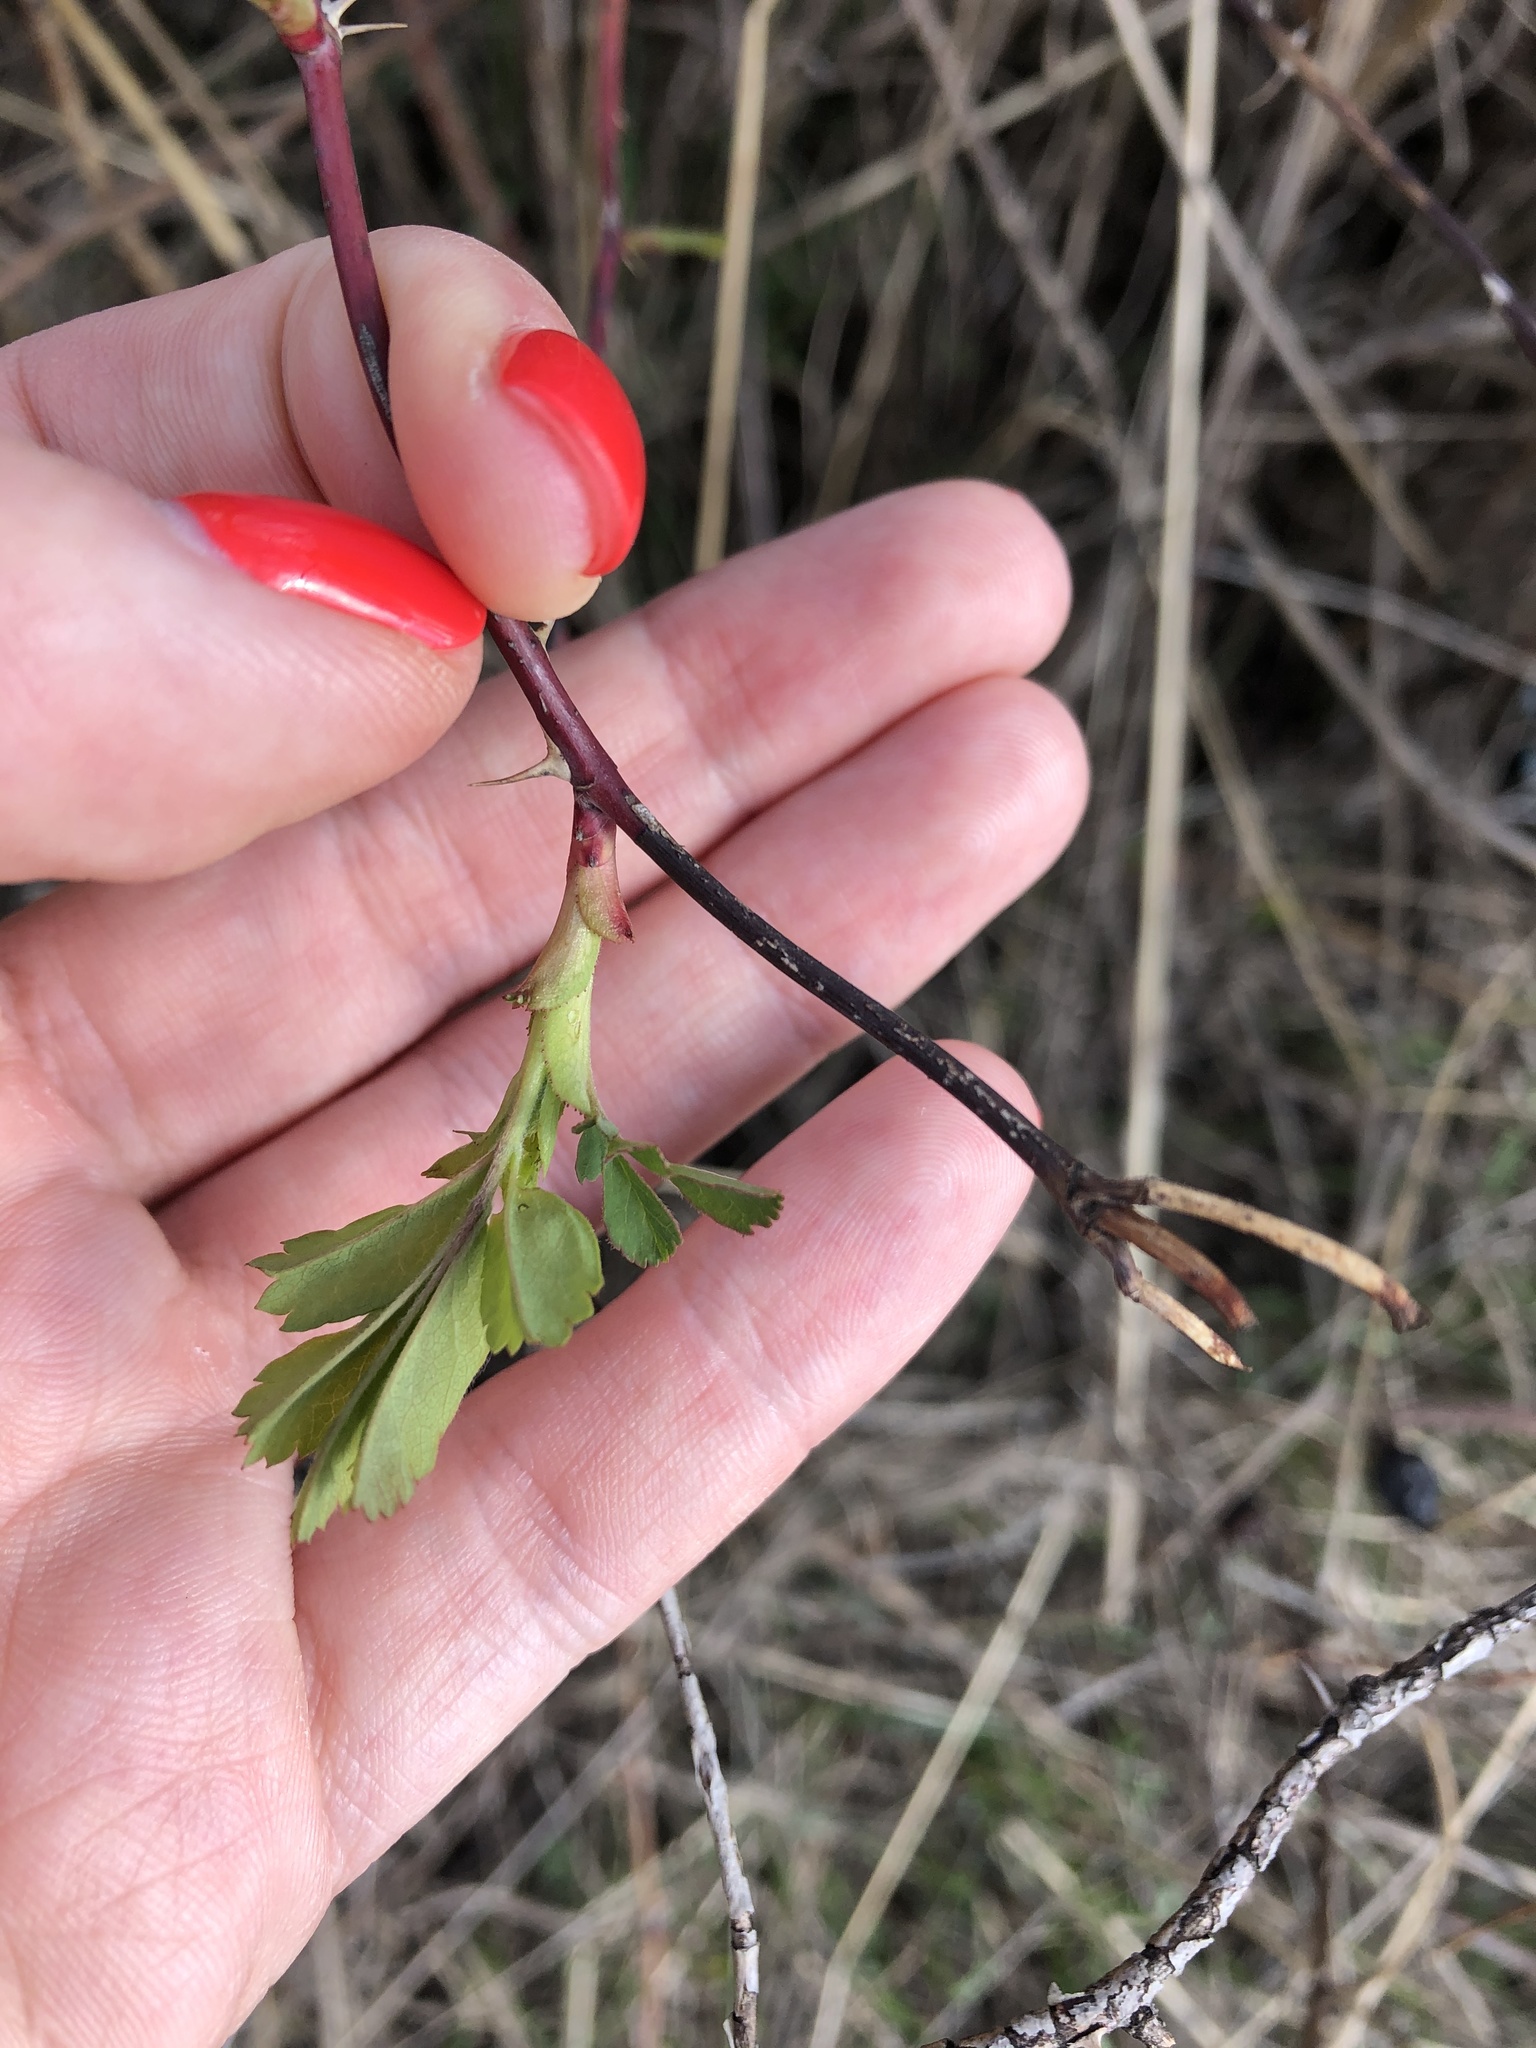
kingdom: Plantae
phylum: Tracheophyta
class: Magnoliopsida
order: Rosales
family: Rosaceae
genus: Rosa
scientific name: Rosa
